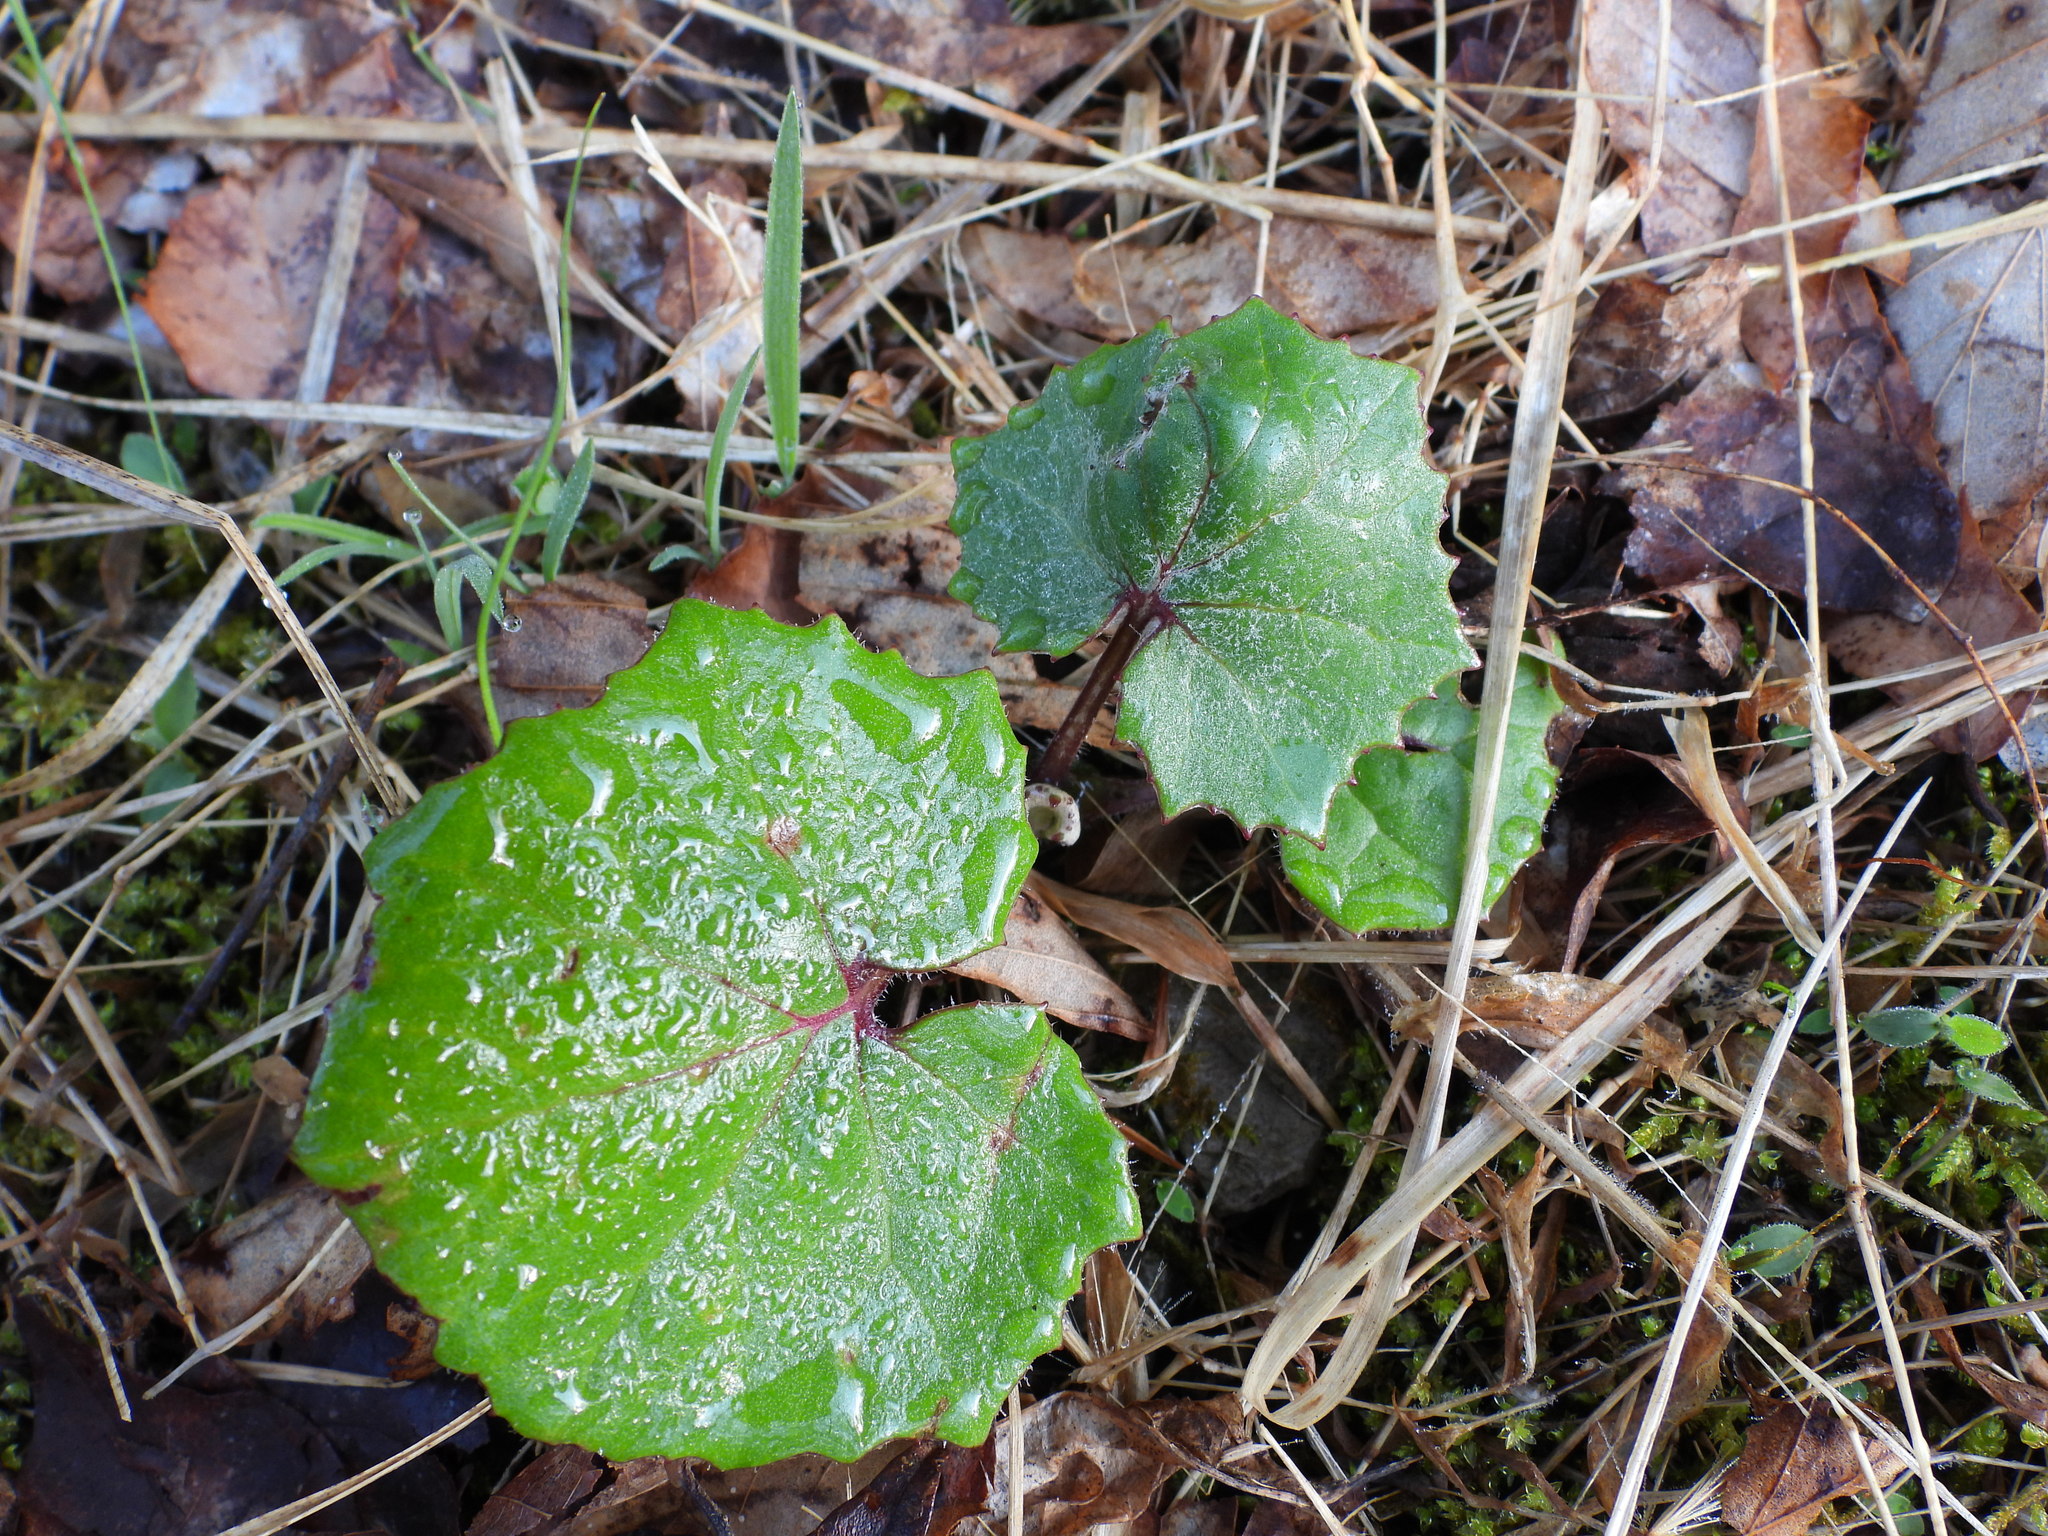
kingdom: Plantae
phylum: Tracheophyta
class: Magnoliopsida
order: Asterales
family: Asteraceae
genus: Tussilago
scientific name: Tussilago farfara
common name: Coltsfoot
